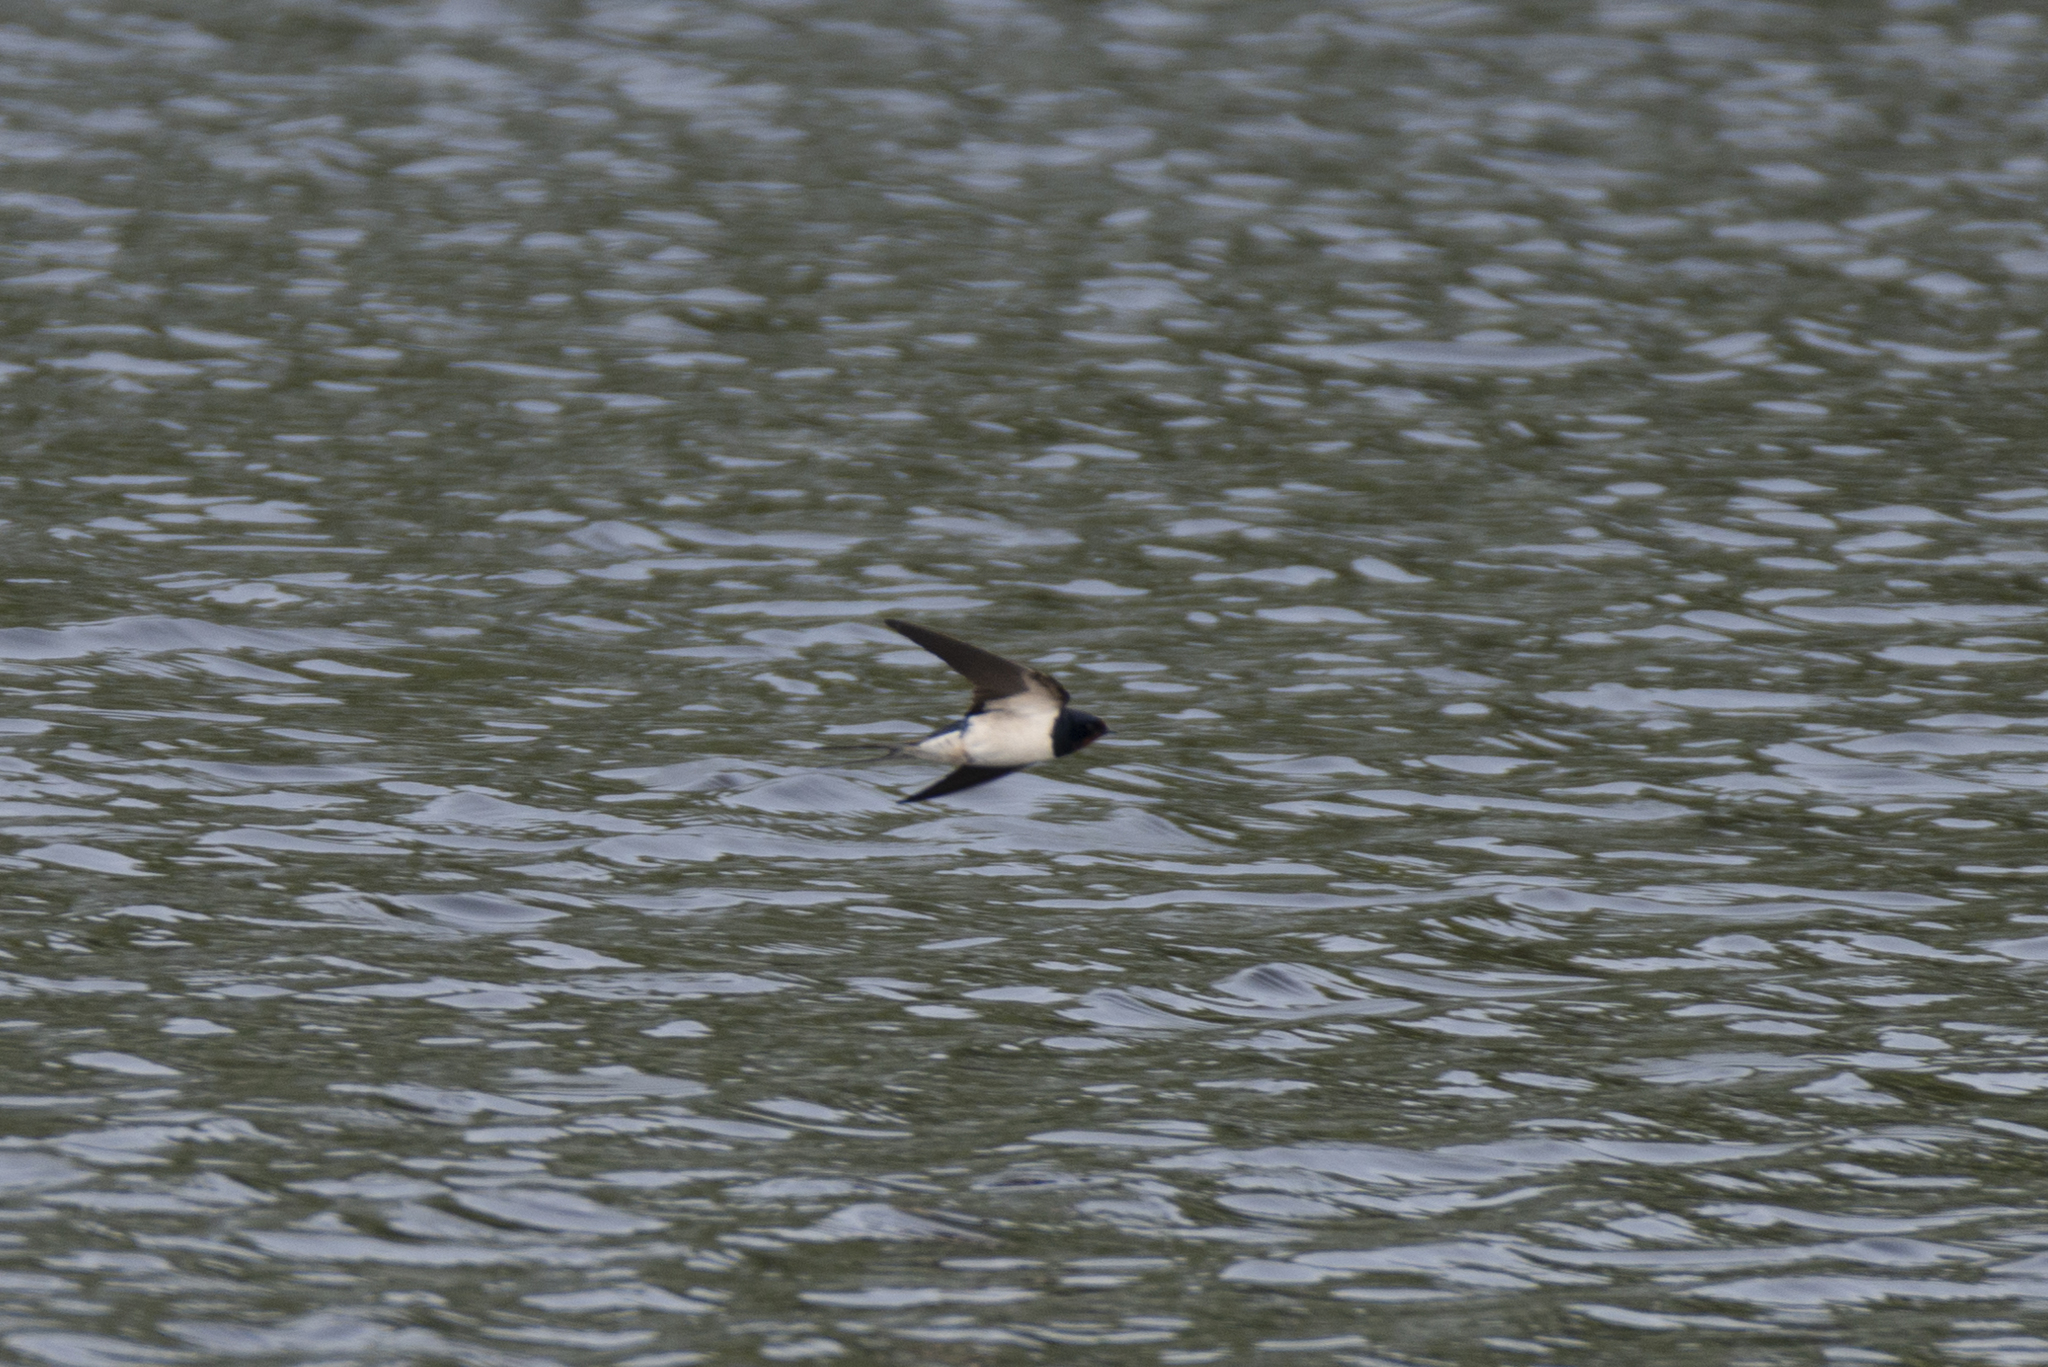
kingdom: Animalia
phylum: Chordata
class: Aves
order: Passeriformes
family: Hirundinidae
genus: Hirundo
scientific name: Hirundo rustica
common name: Barn swallow
